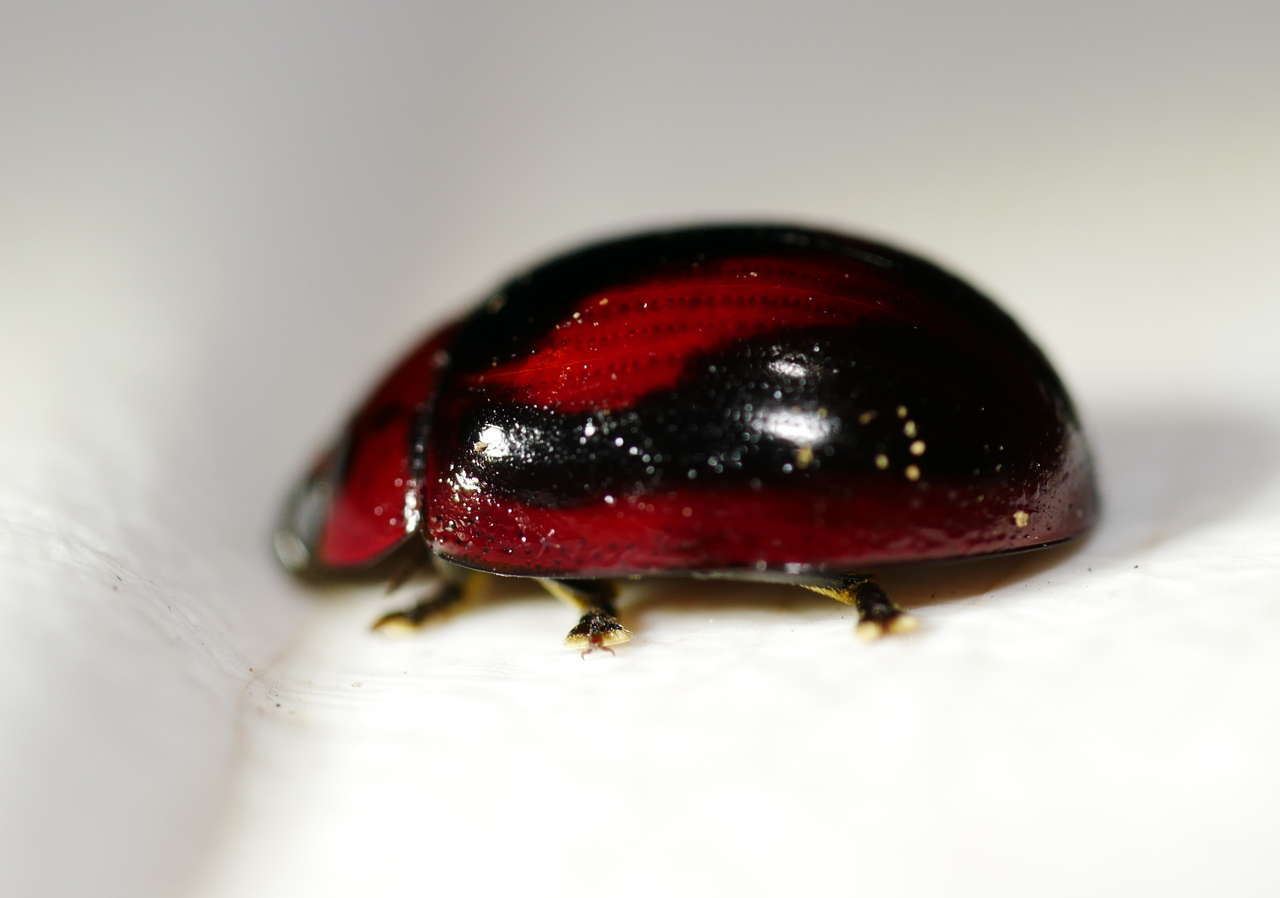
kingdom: Animalia
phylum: Arthropoda
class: Insecta
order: Coleoptera
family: Chrysomelidae
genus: Paropsisterna
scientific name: Paropsisterna
